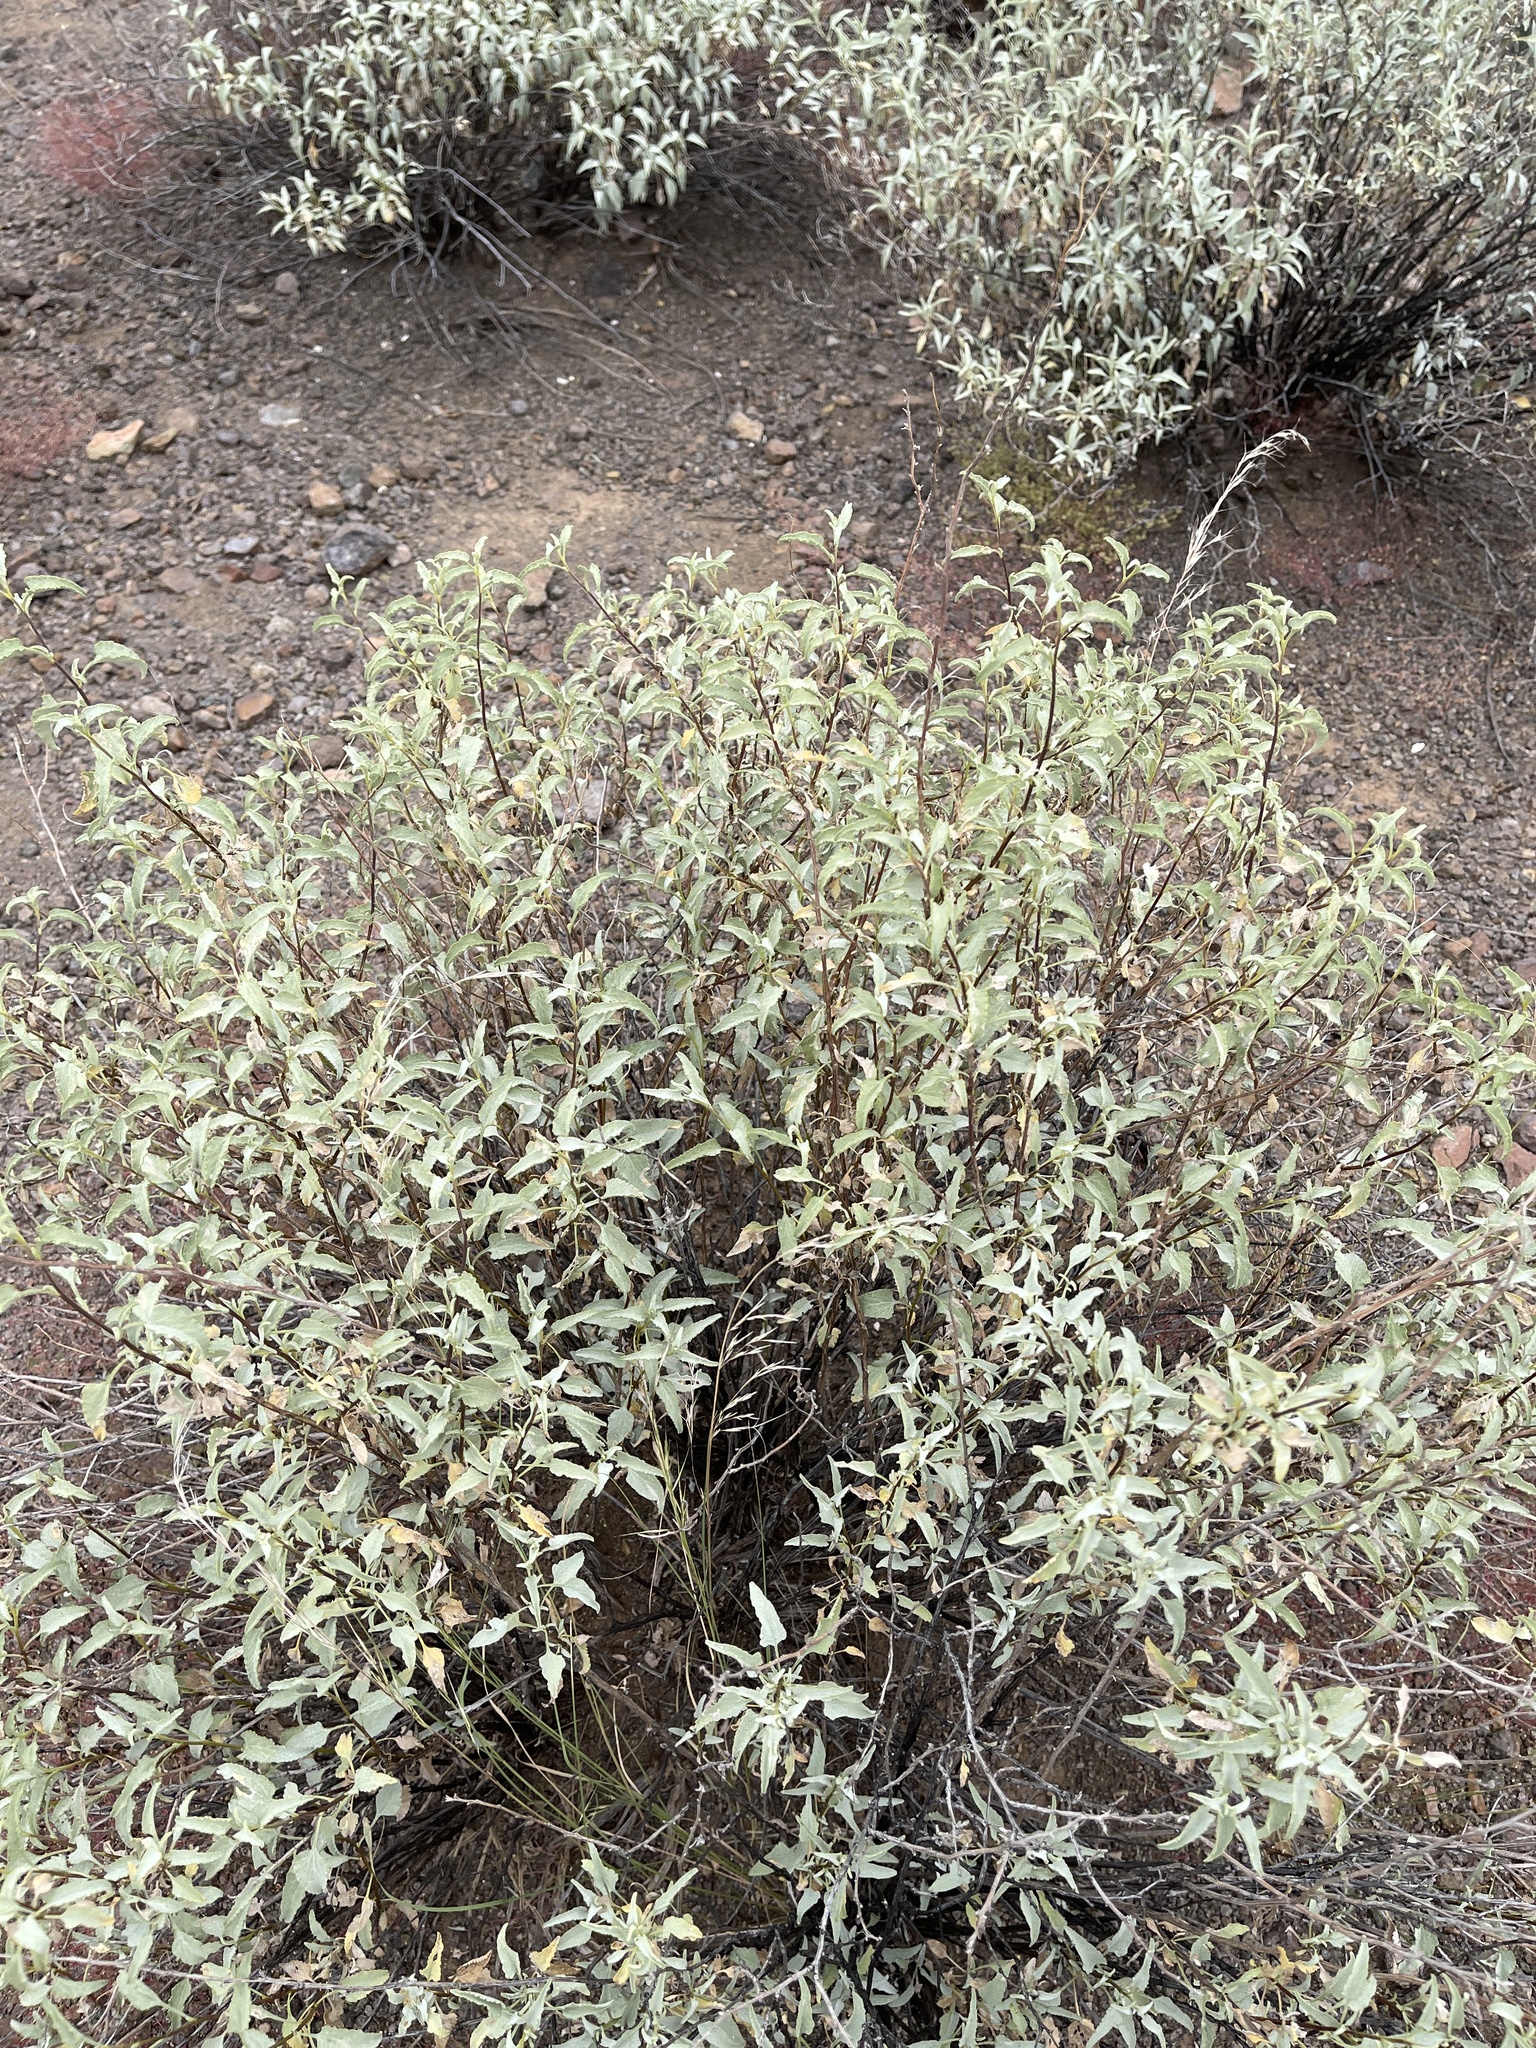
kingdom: Plantae
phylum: Tracheophyta
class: Magnoliopsida
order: Asterales
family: Asteraceae
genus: Ambrosia
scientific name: Ambrosia deltoidea
